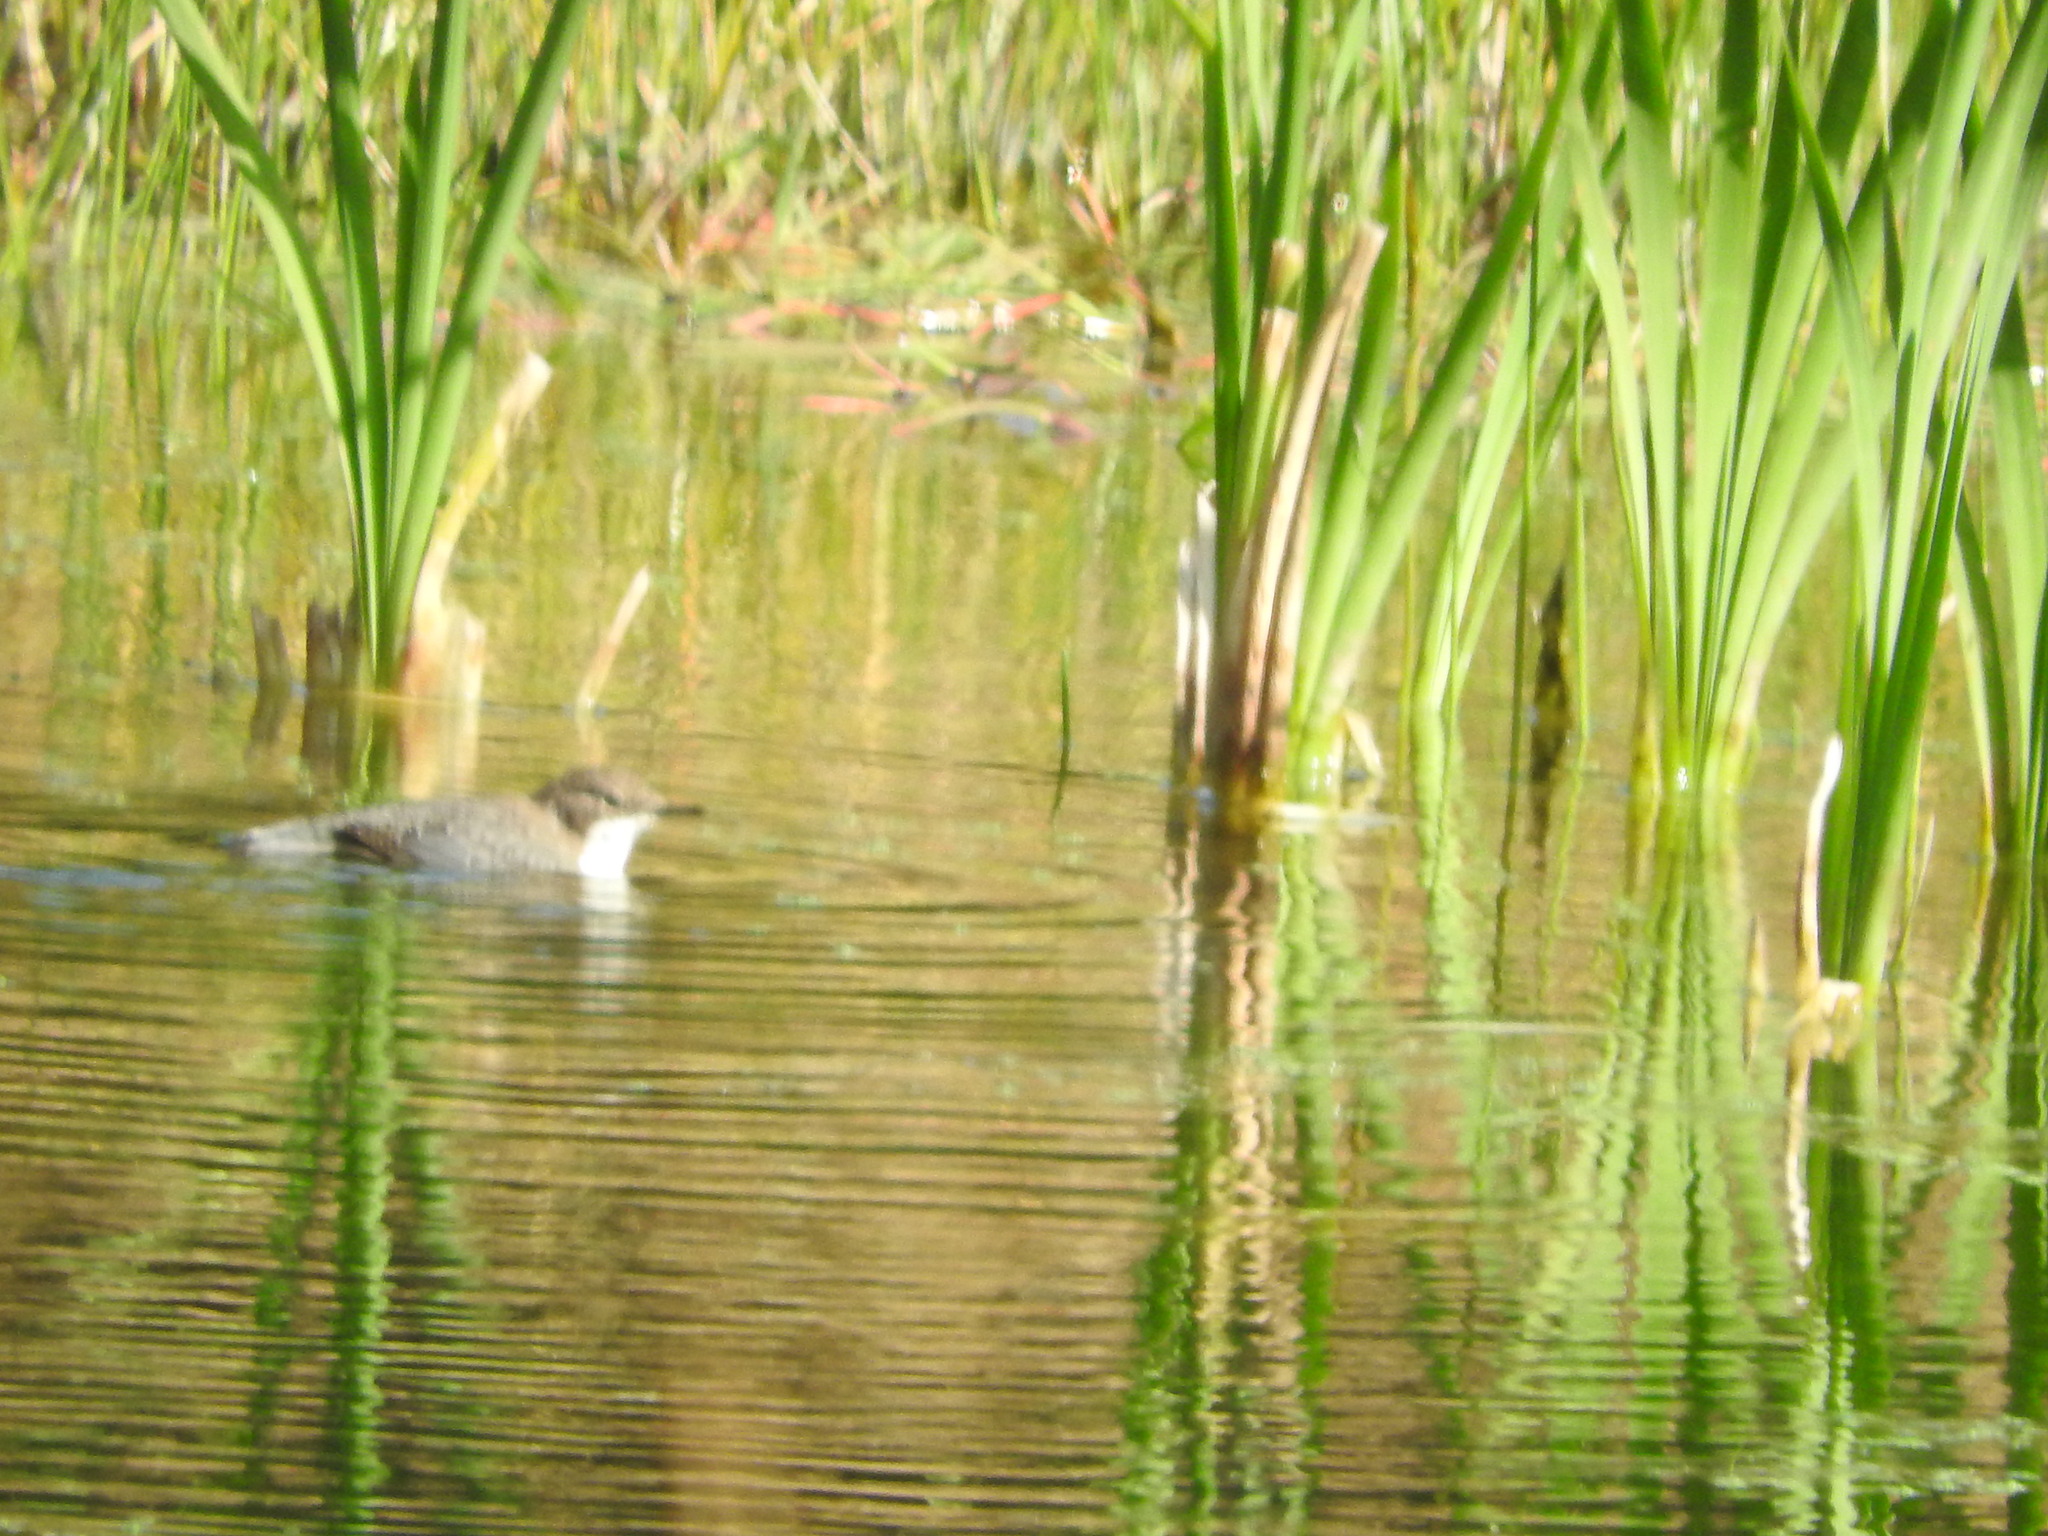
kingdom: Animalia
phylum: Chordata
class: Aves
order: Passeriformes
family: Cinclidae
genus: Cinclus
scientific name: Cinclus cinclus
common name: White-throated dipper
